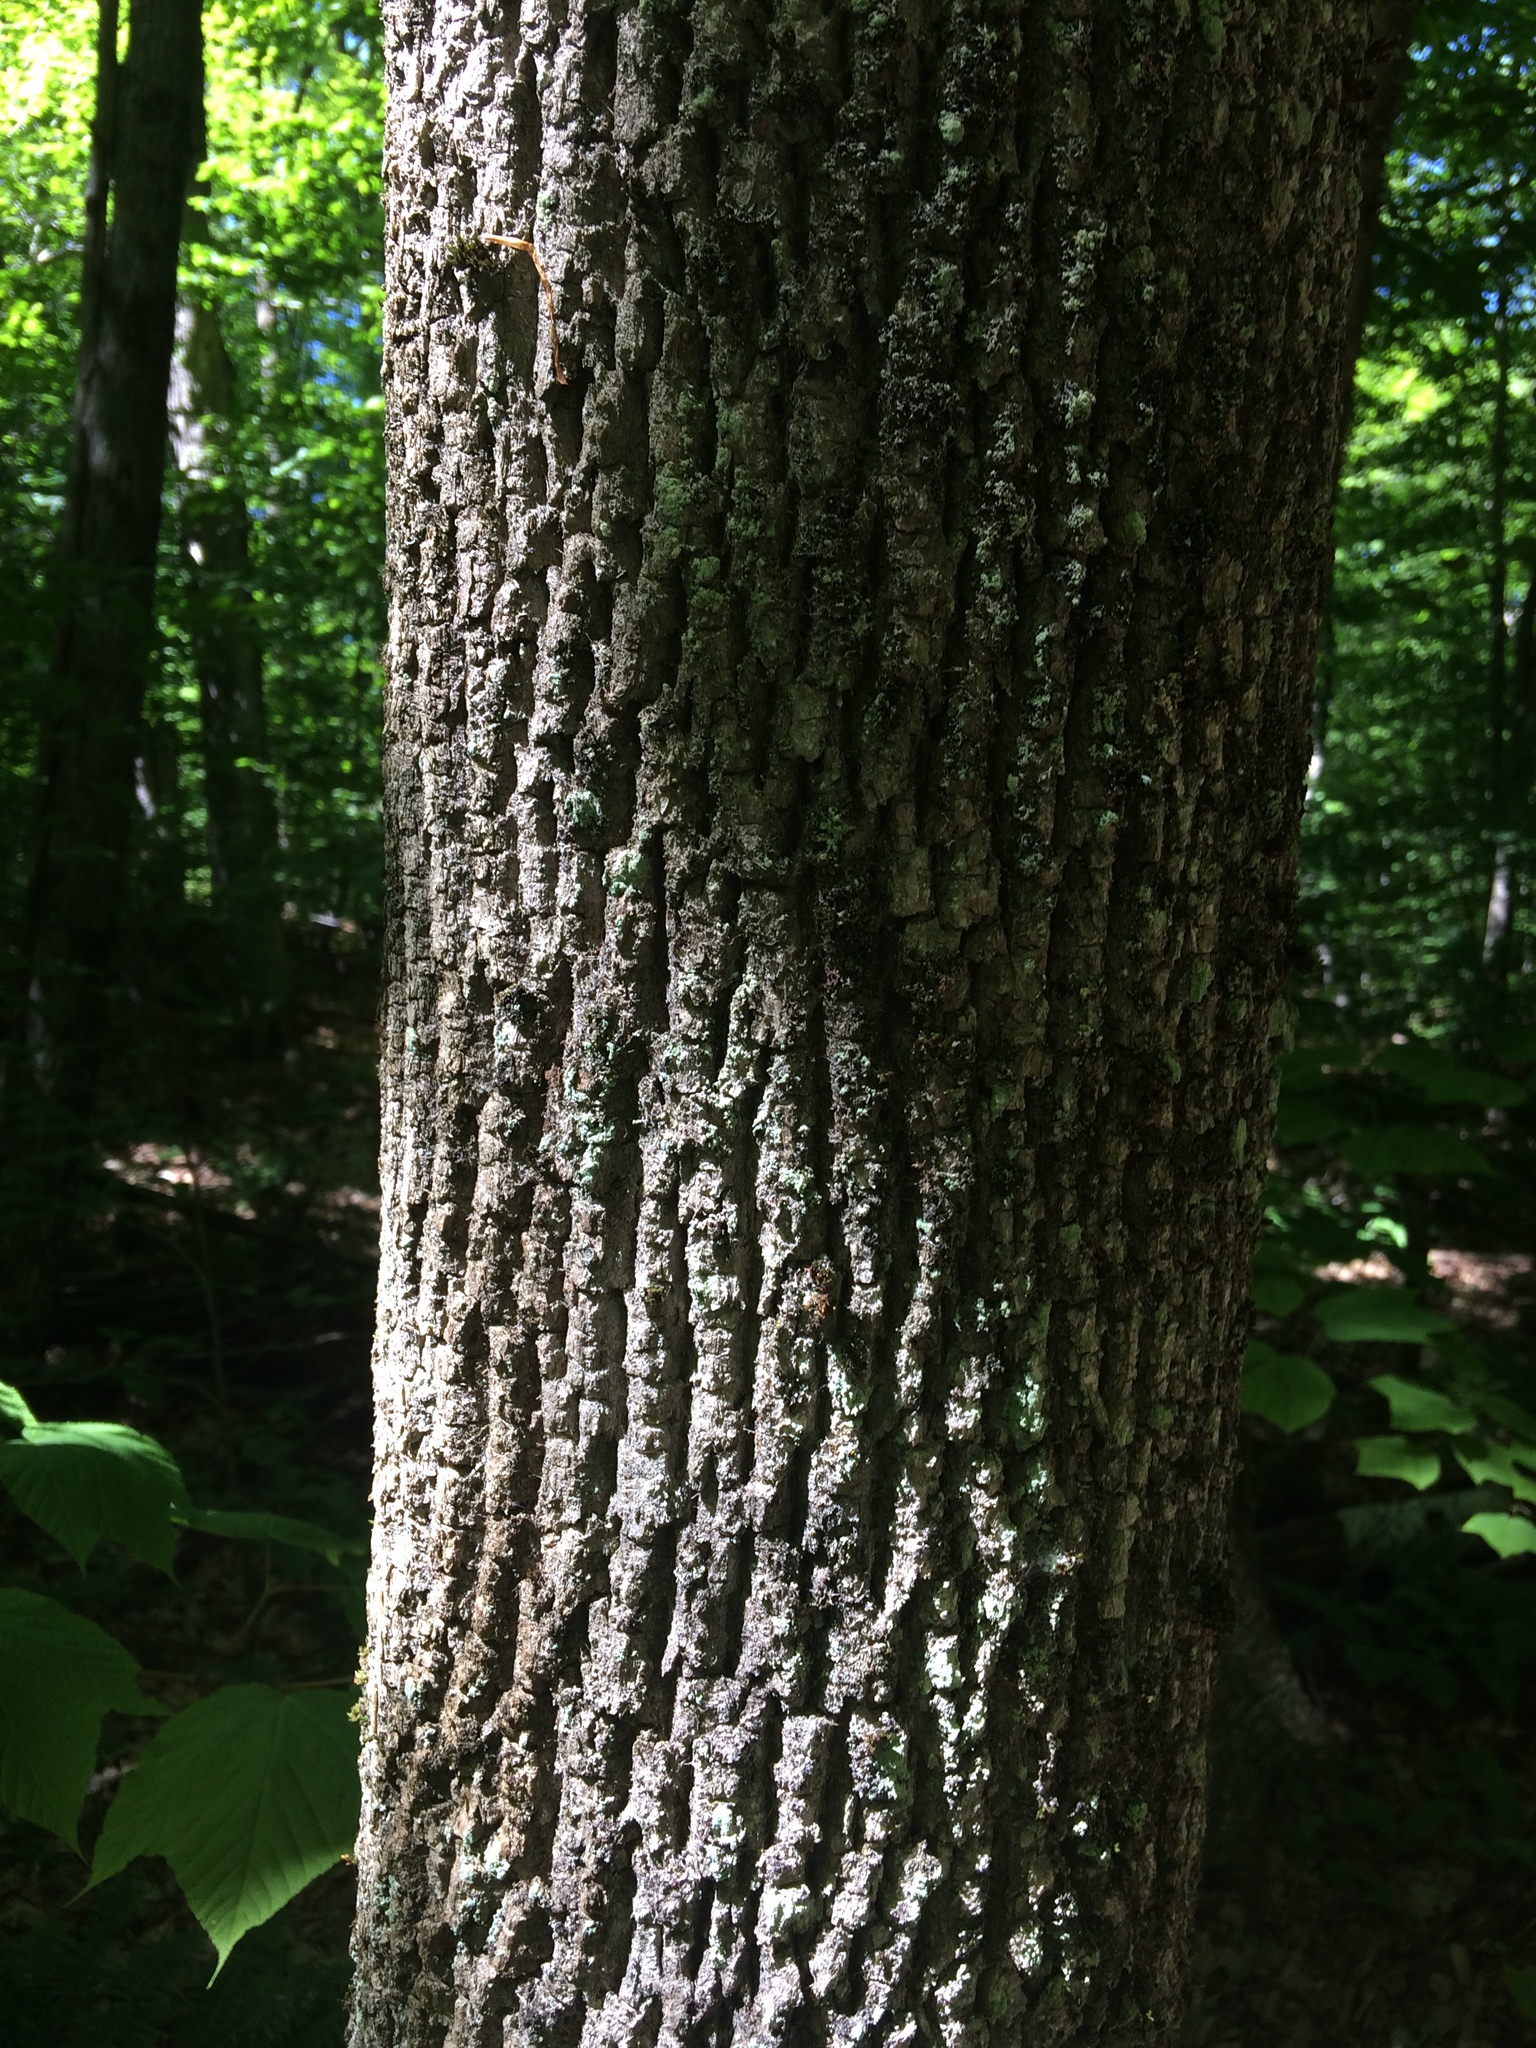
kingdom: Plantae
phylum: Tracheophyta
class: Magnoliopsida
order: Lamiales
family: Oleaceae
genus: Fraxinus
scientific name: Fraxinus americana
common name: White ash
